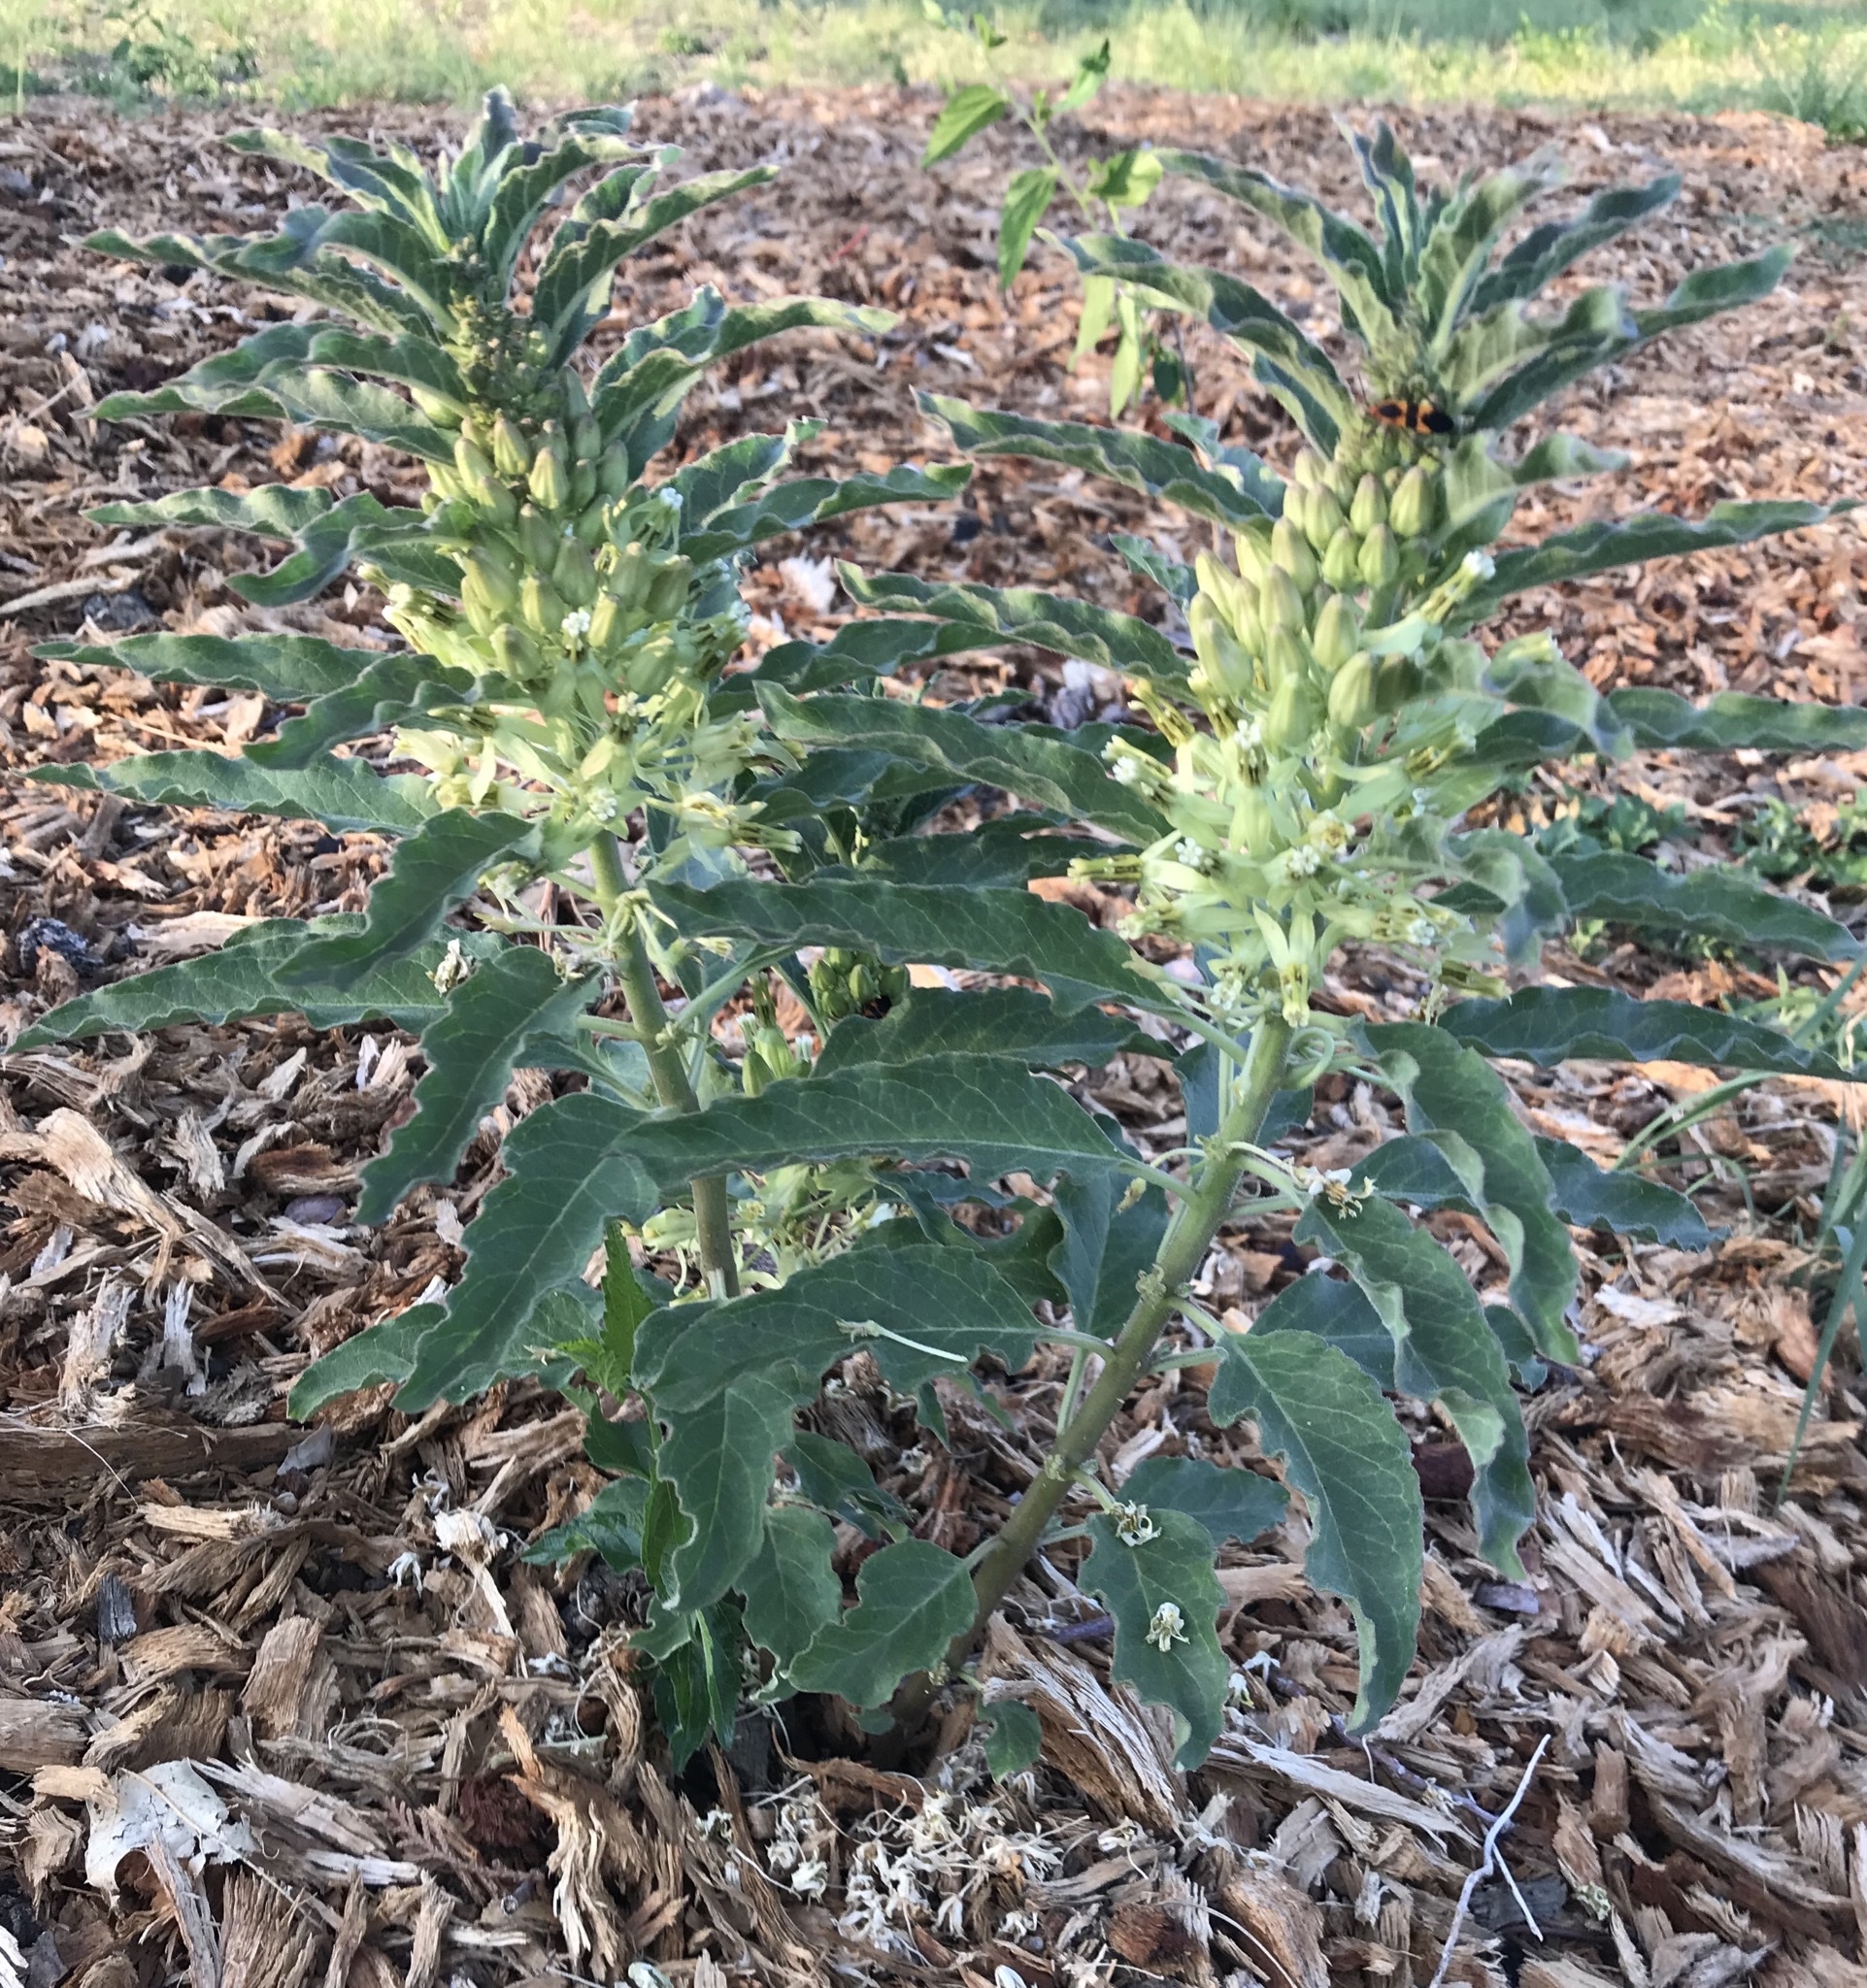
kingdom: Plantae
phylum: Tracheophyta
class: Magnoliopsida
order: Gentianales
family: Apocynaceae
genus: Asclepias
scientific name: Asclepias oenotheroides
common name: Zizotes milkweed
